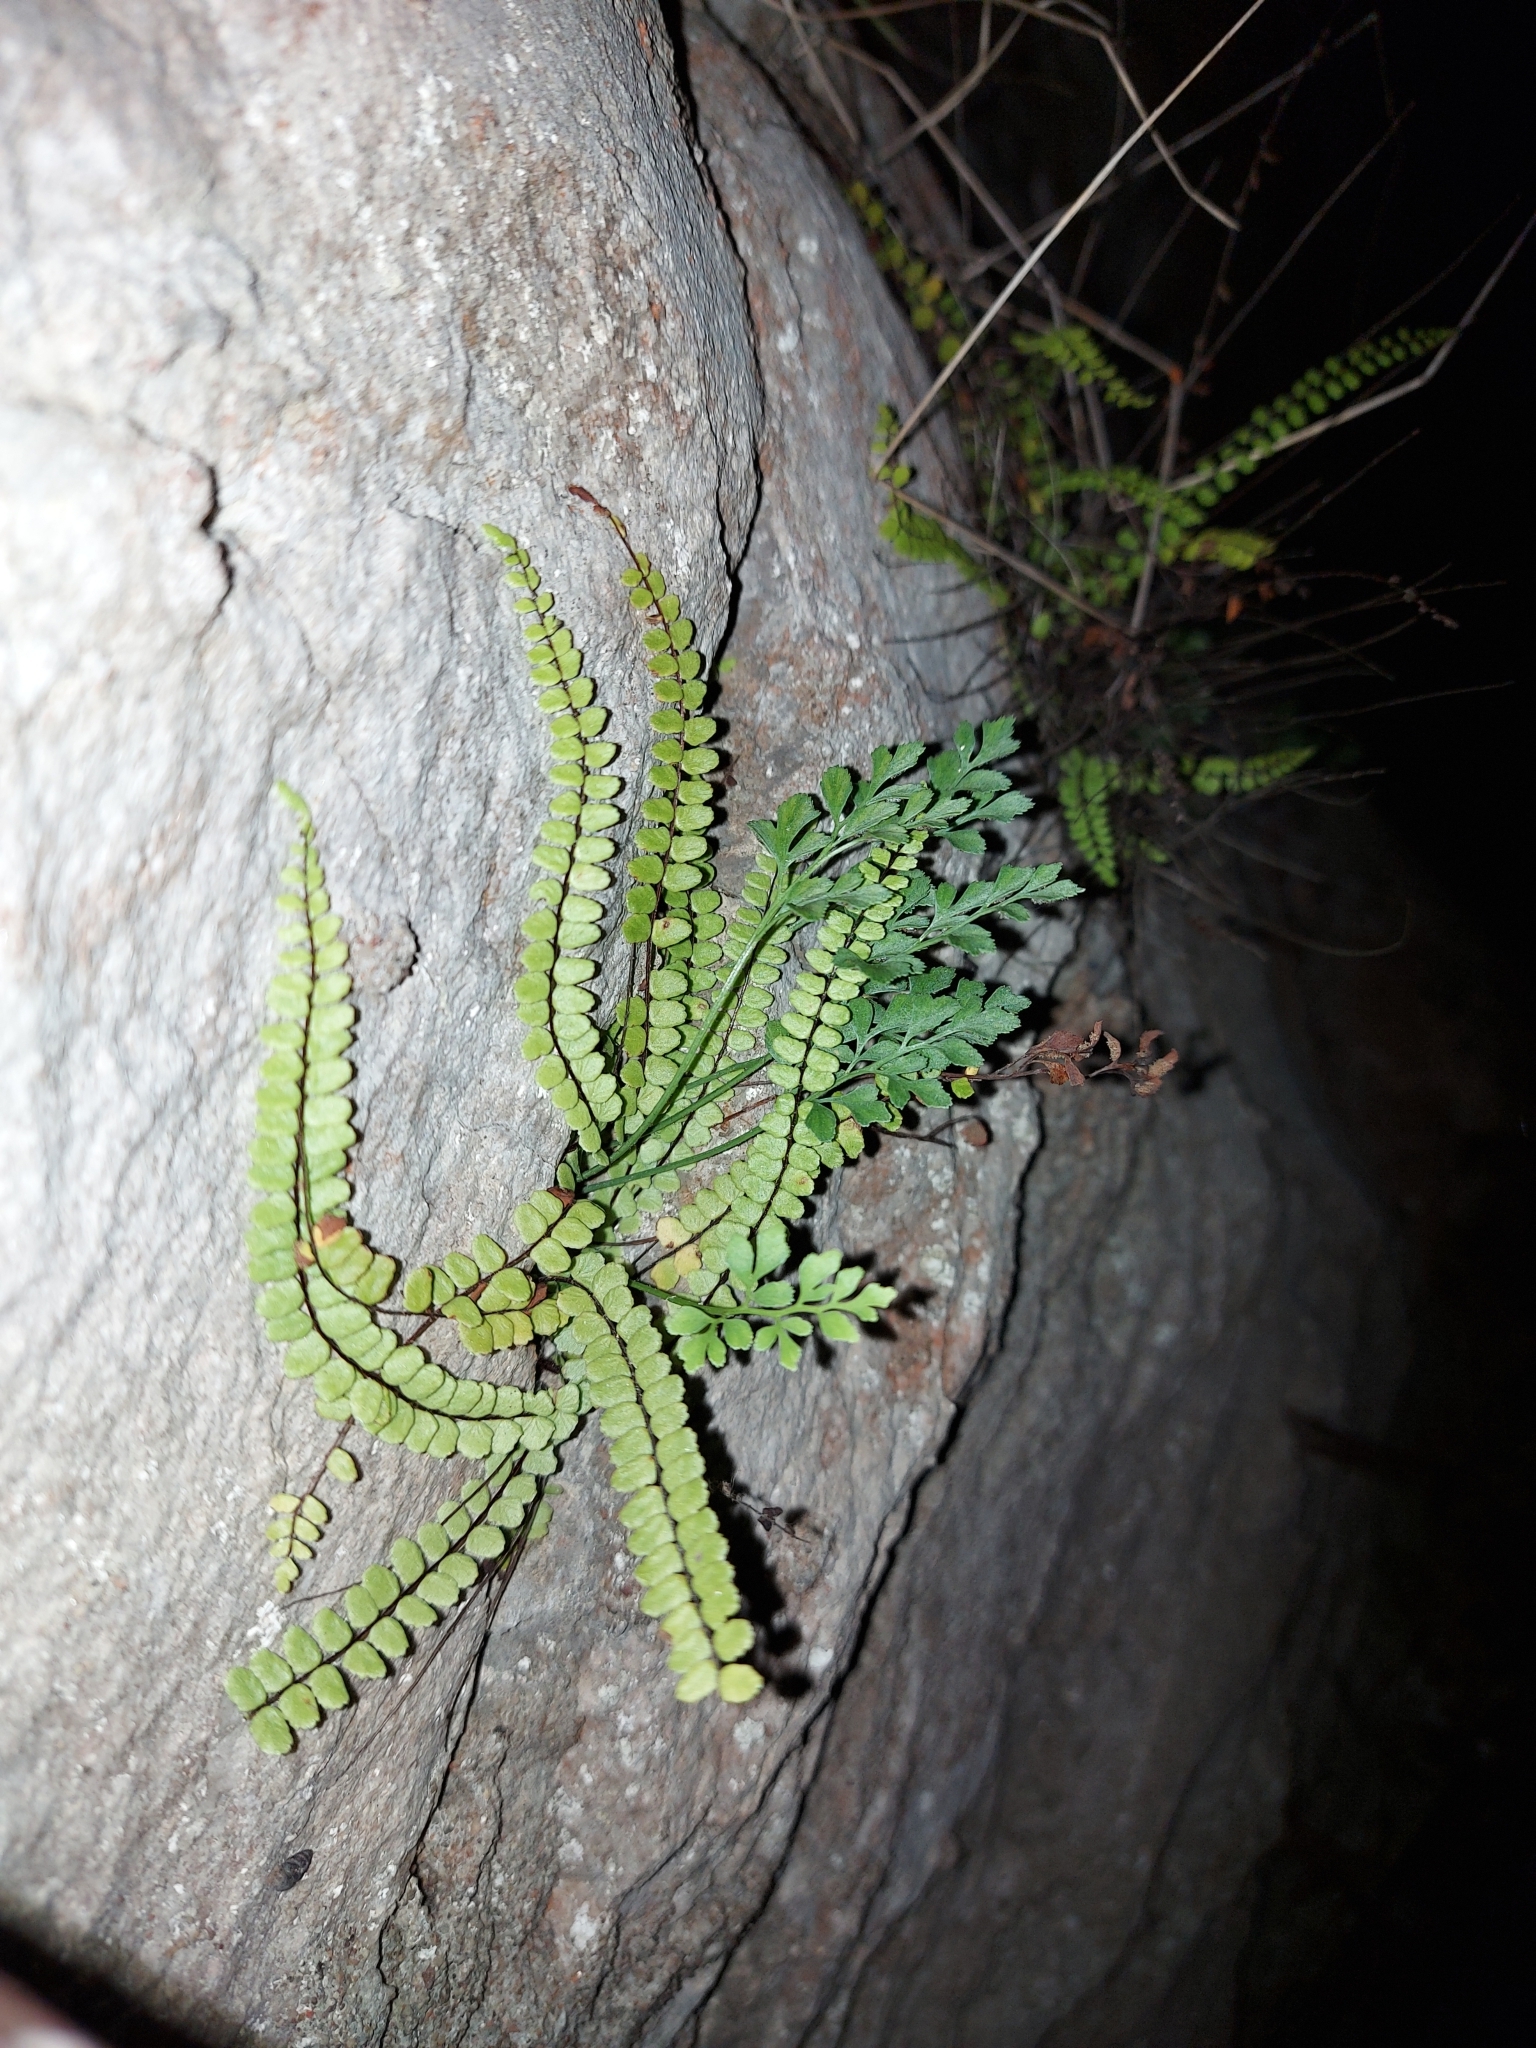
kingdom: Plantae
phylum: Tracheophyta
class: Polypodiopsida
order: Polypodiales
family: Aspleniaceae
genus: Asplenium
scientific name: Asplenium trichomanes
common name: Maidenhair spleenwort
